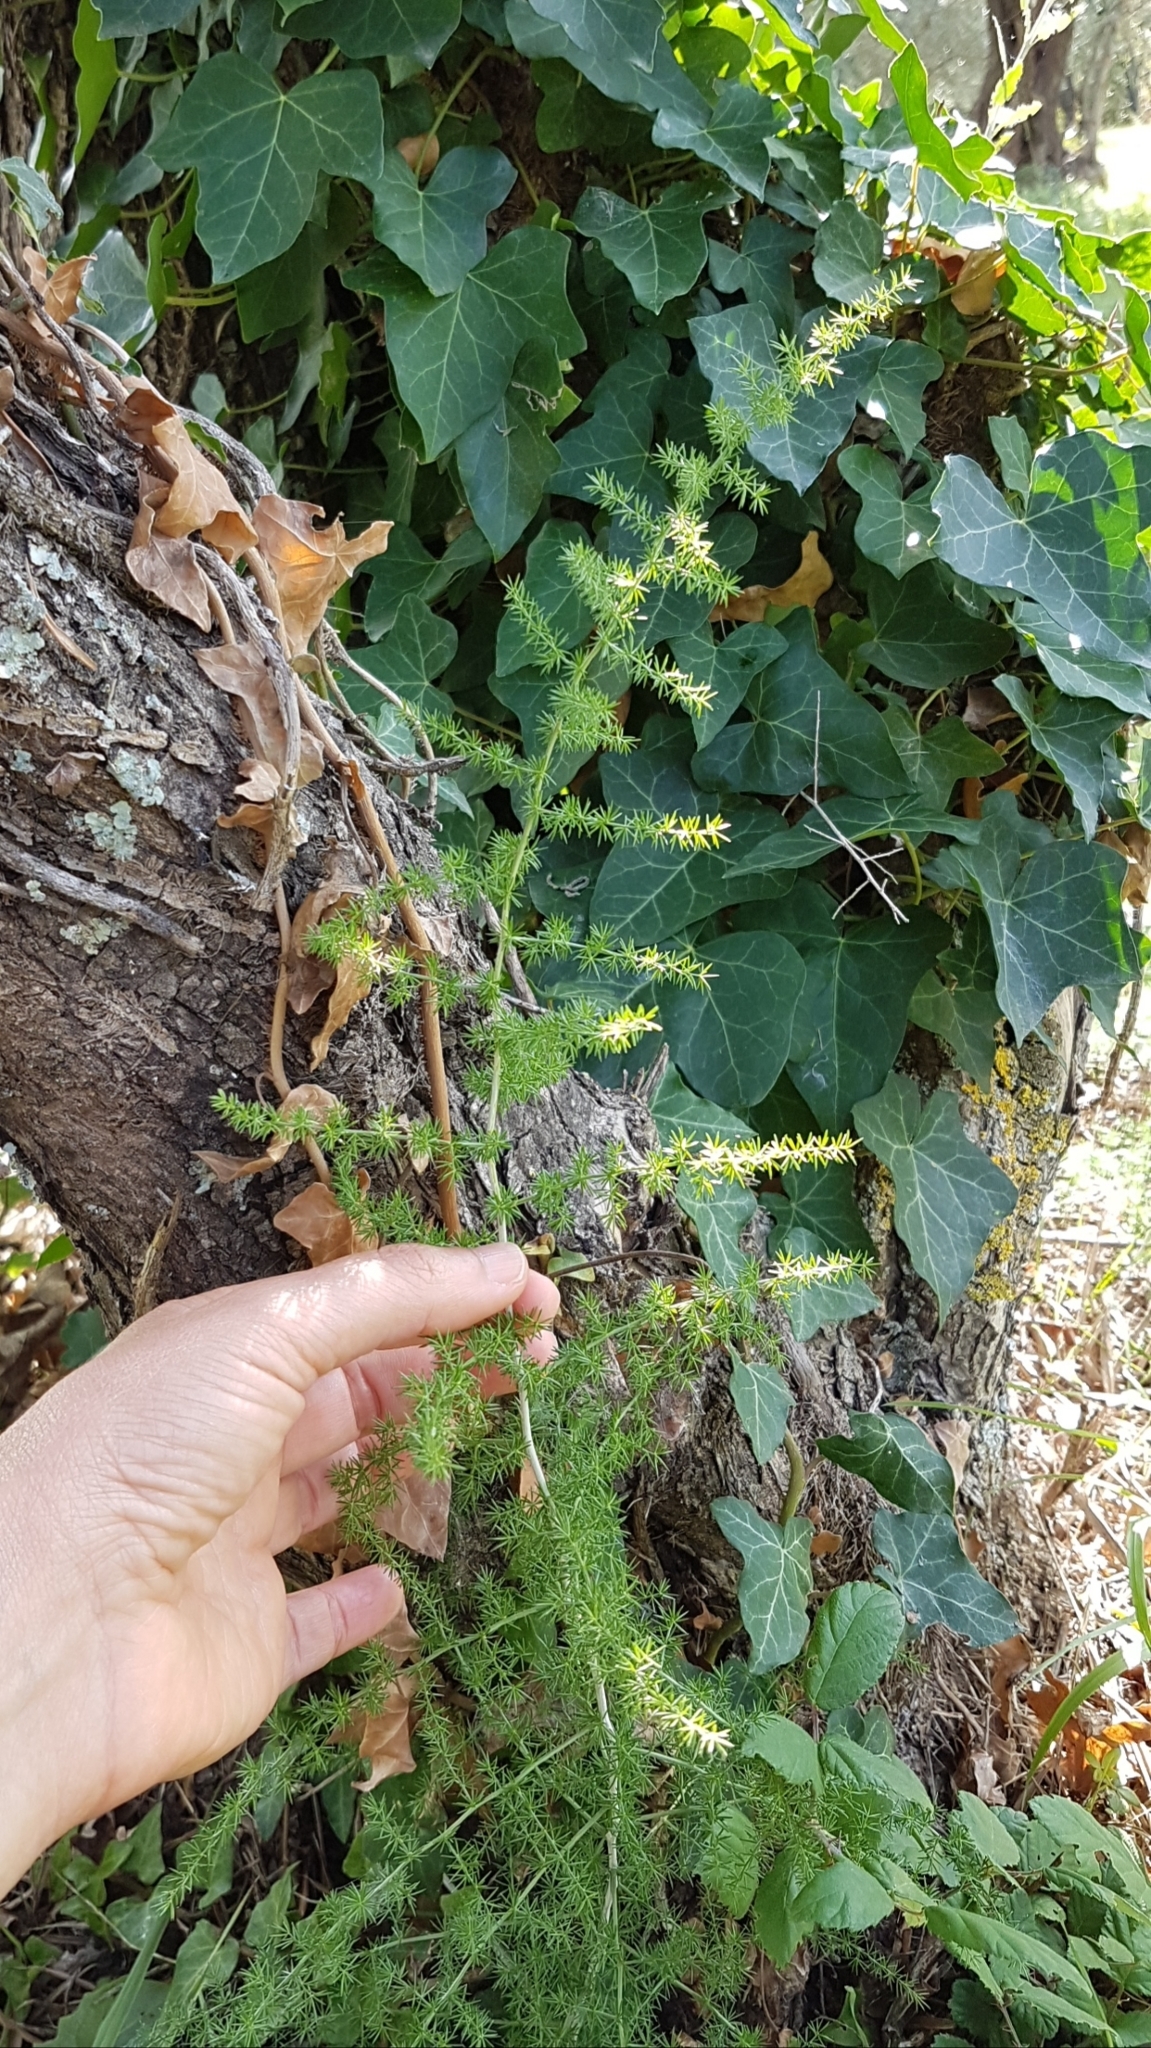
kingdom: Plantae
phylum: Tracheophyta
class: Liliopsida
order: Asparagales
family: Asparagaceae
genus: Asparagus
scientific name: Asparagus acutifolius
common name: Wild asparagus
